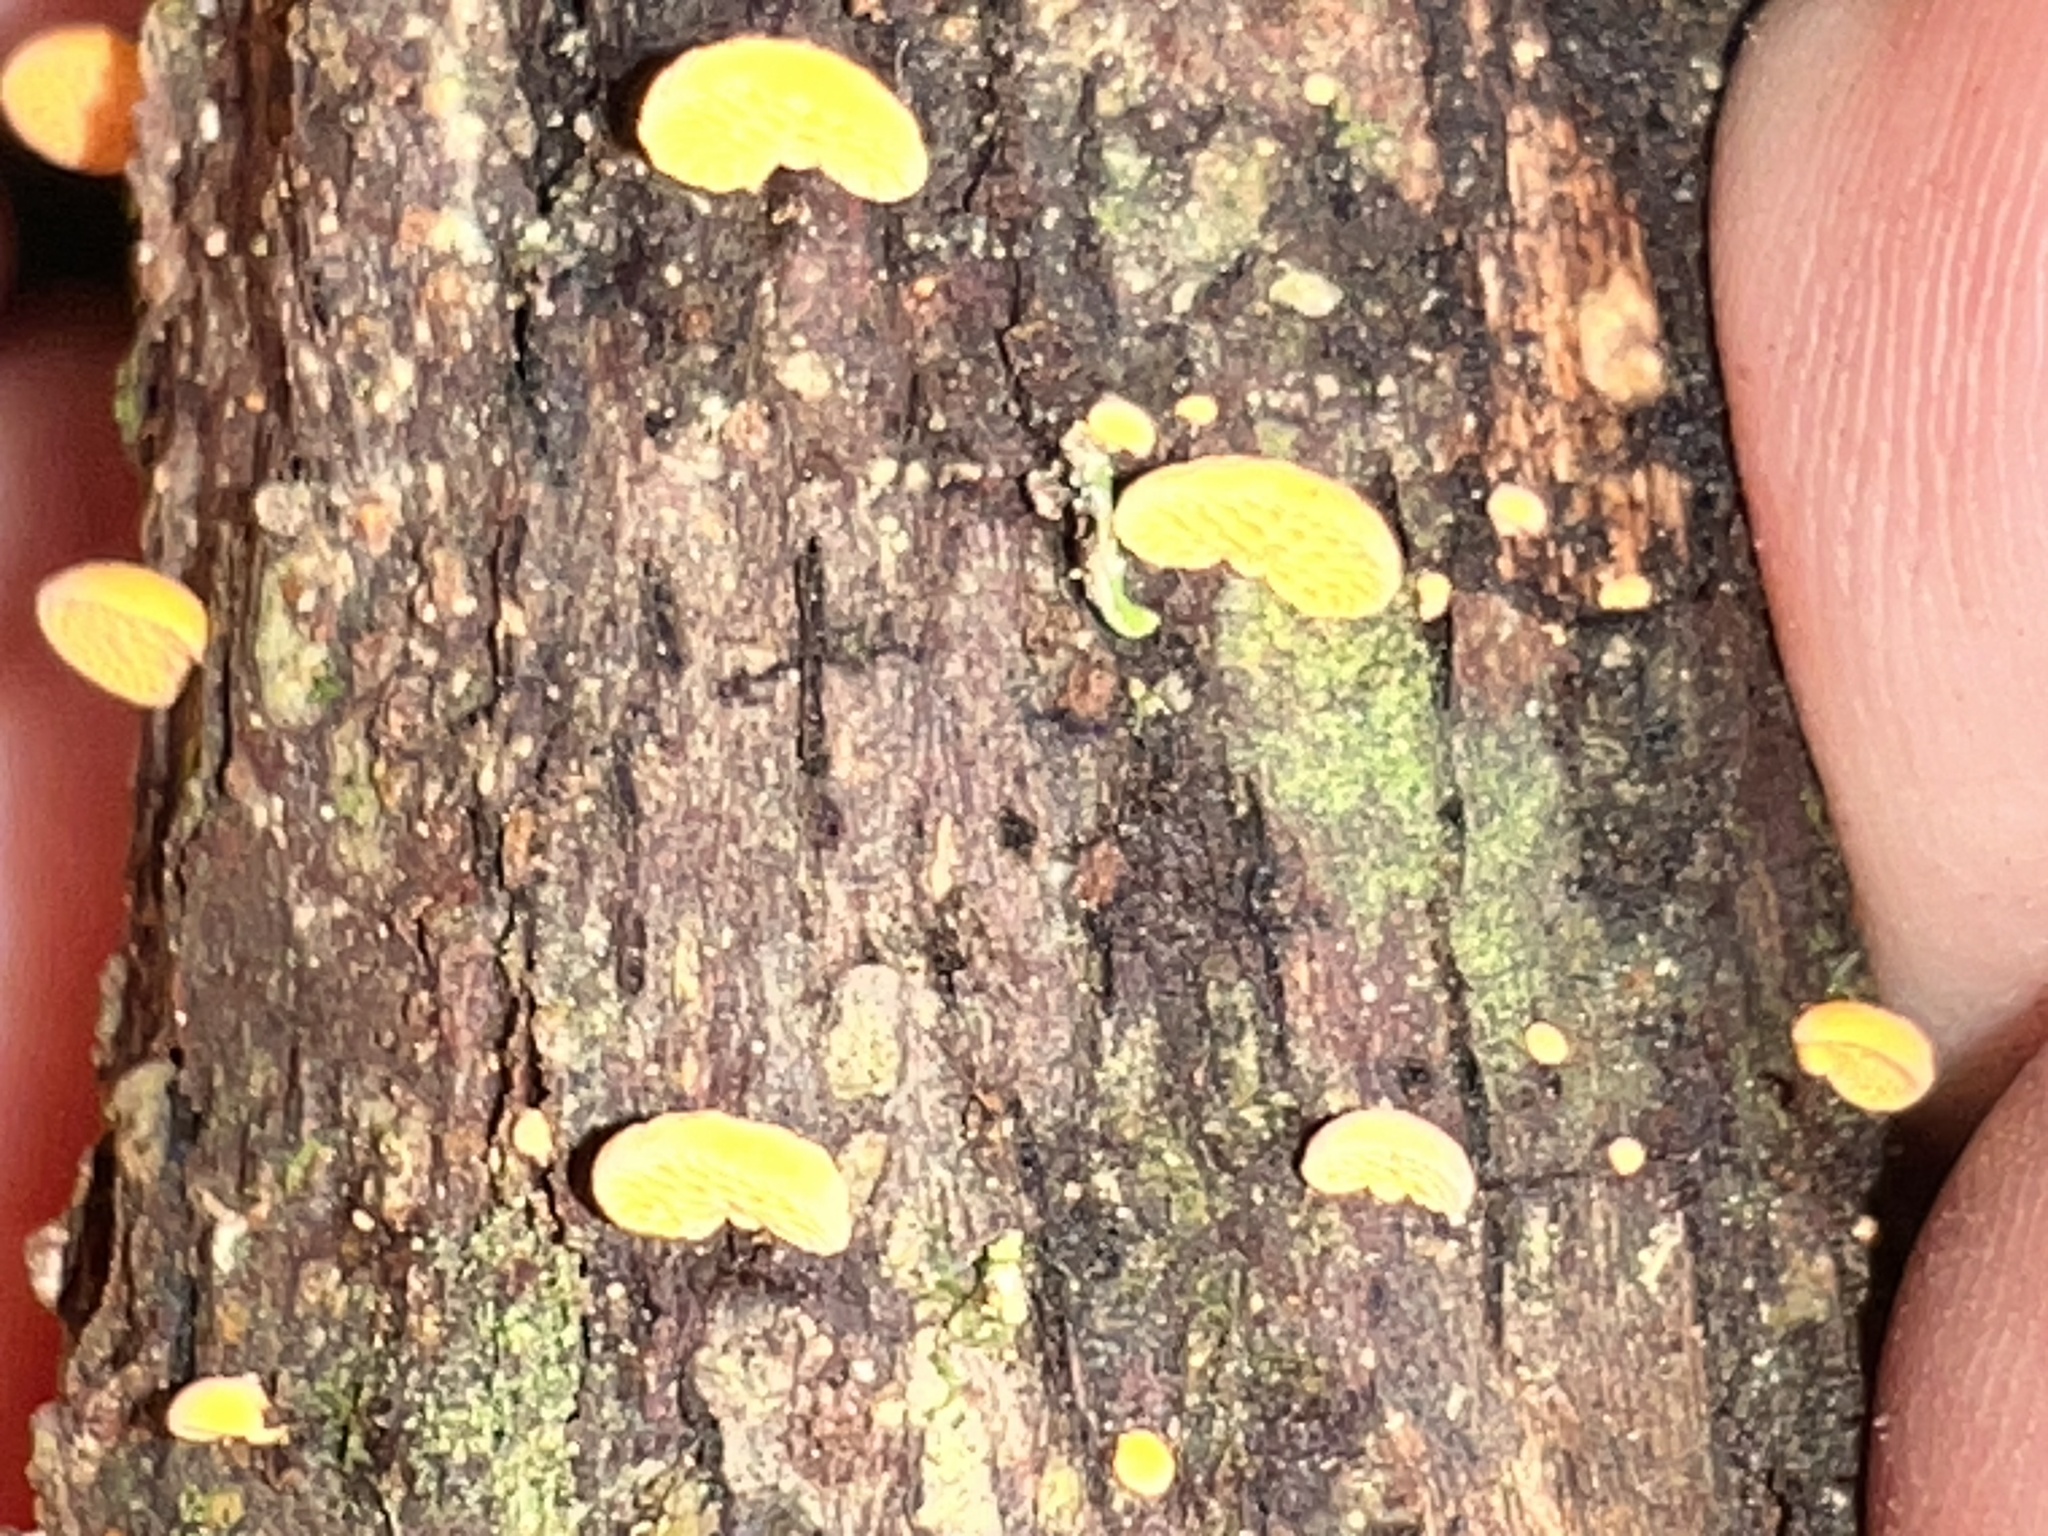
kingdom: Fungi
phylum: Basidiomycota
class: Agaricomycetes
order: Agaricales
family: Mycenaceae
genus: Favolaschia
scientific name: Favolaschia claudopus
